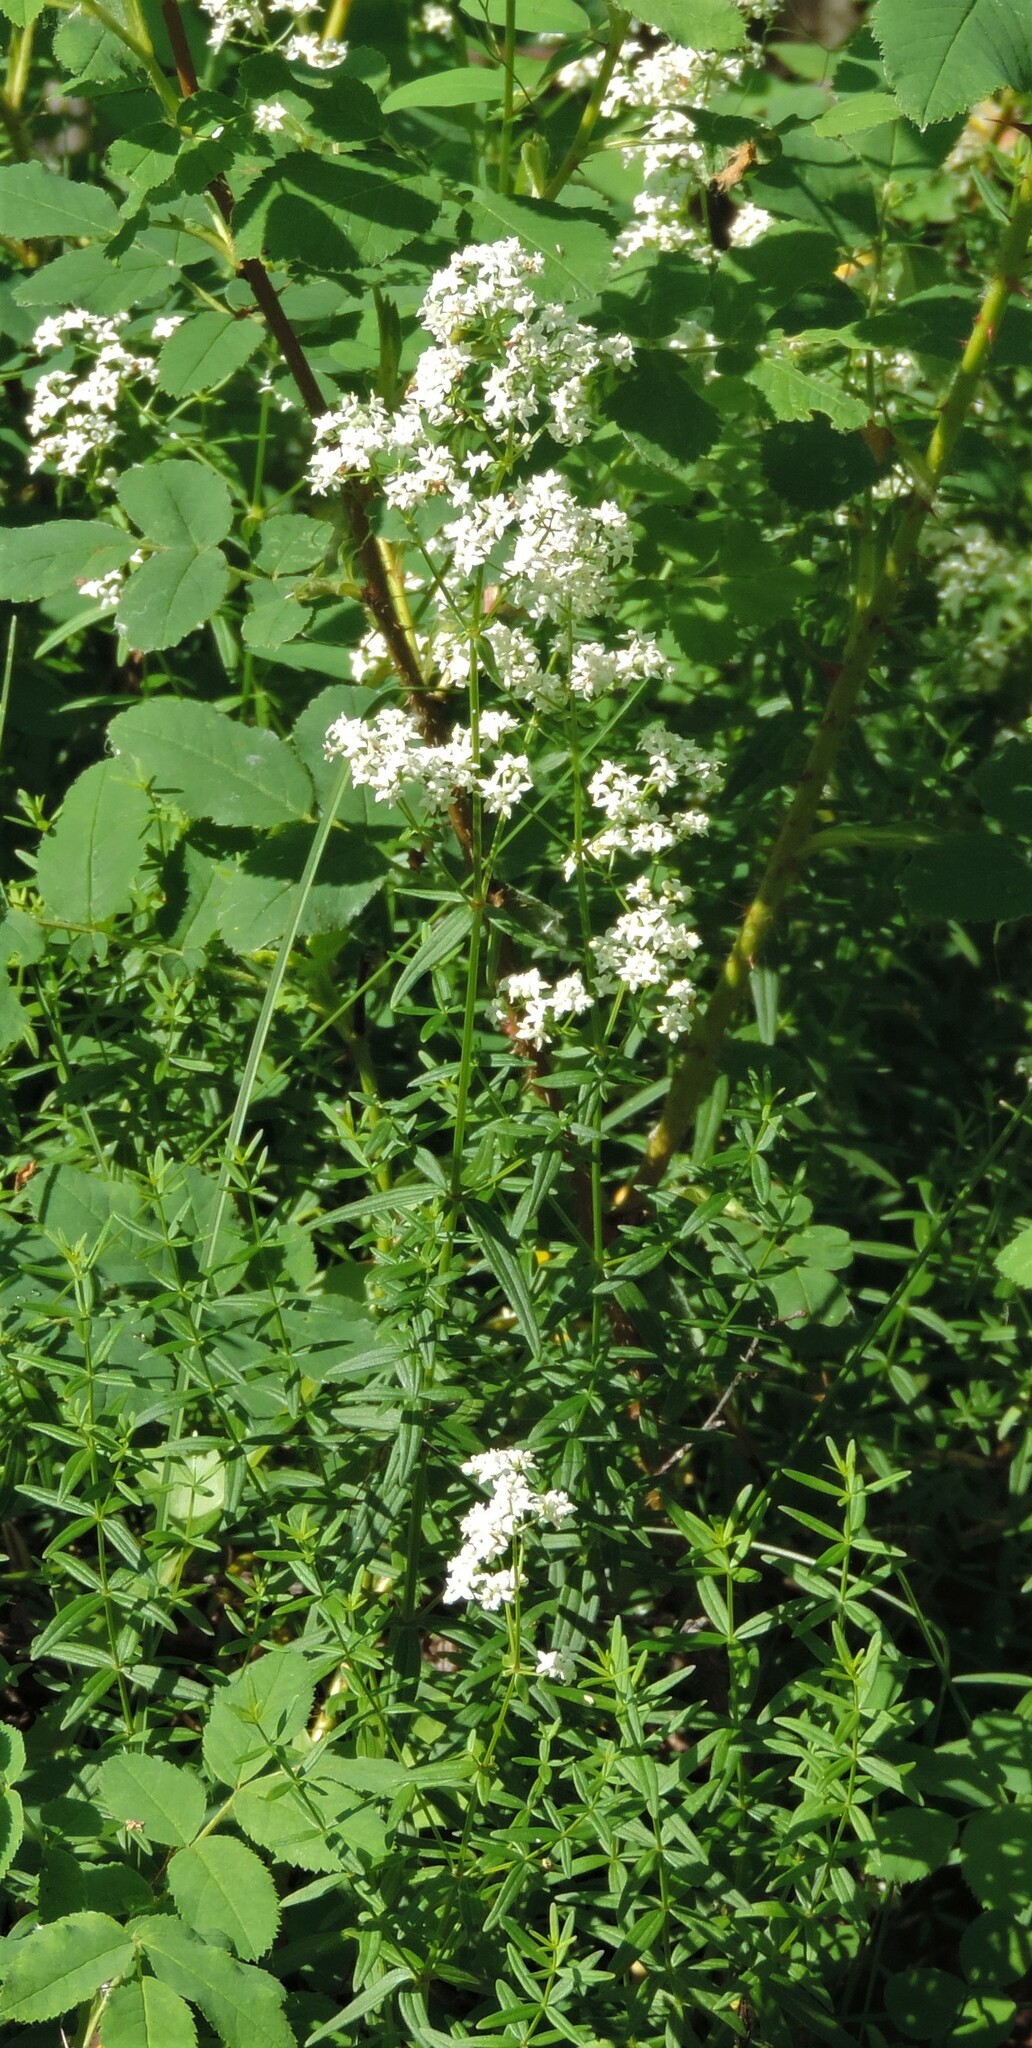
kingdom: Plantae
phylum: Tracheophyta
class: Magnoliopsida
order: Gentianales
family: Rubiaceae
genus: Galium
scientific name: Galium boreale
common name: Northern bedstraw
